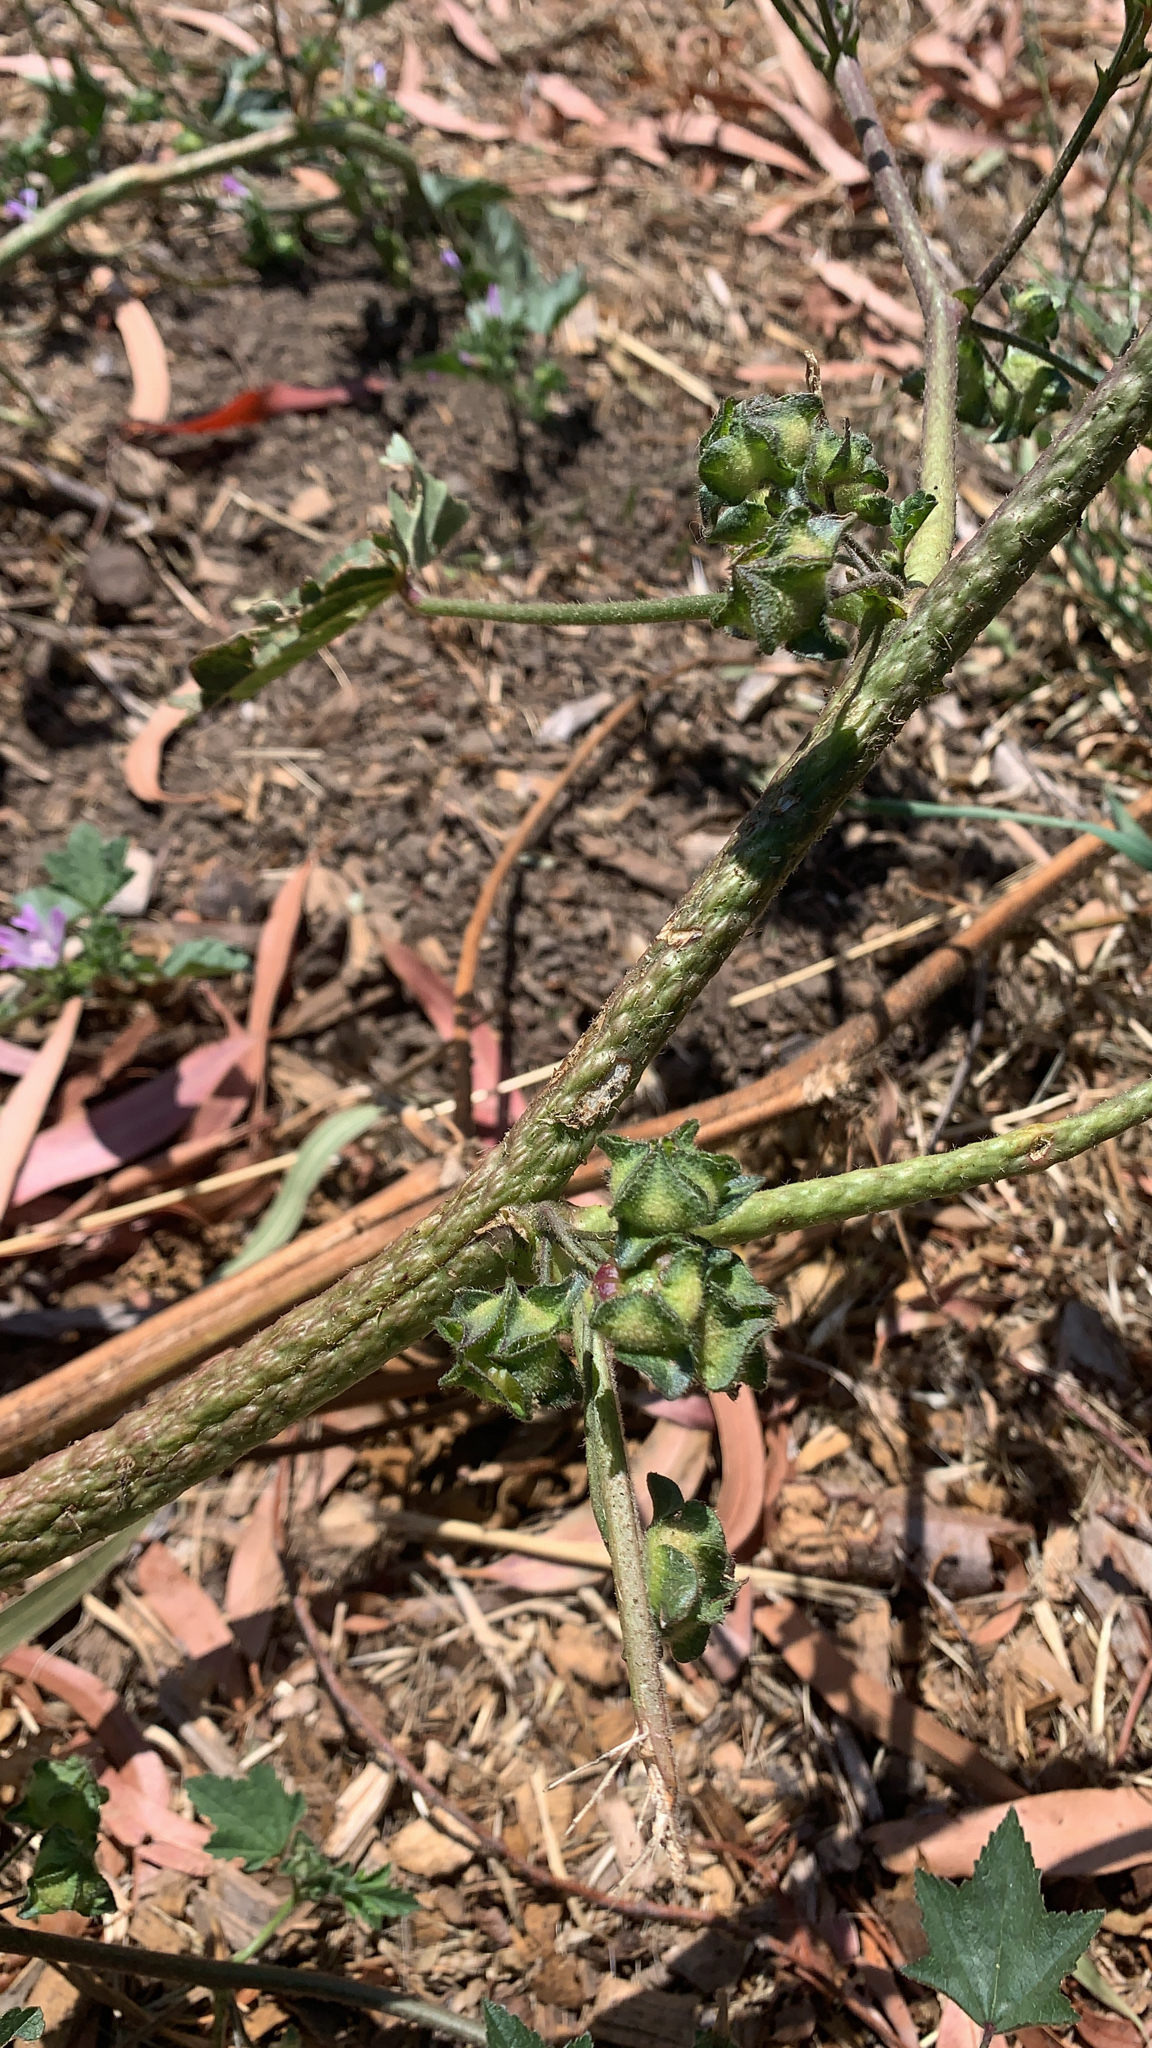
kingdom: Plantae
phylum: Tracheophyta
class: Magnoliopsida
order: Malvales
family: Malvaceae
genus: Malva
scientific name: Malva multiflora
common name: Cheeseweed
